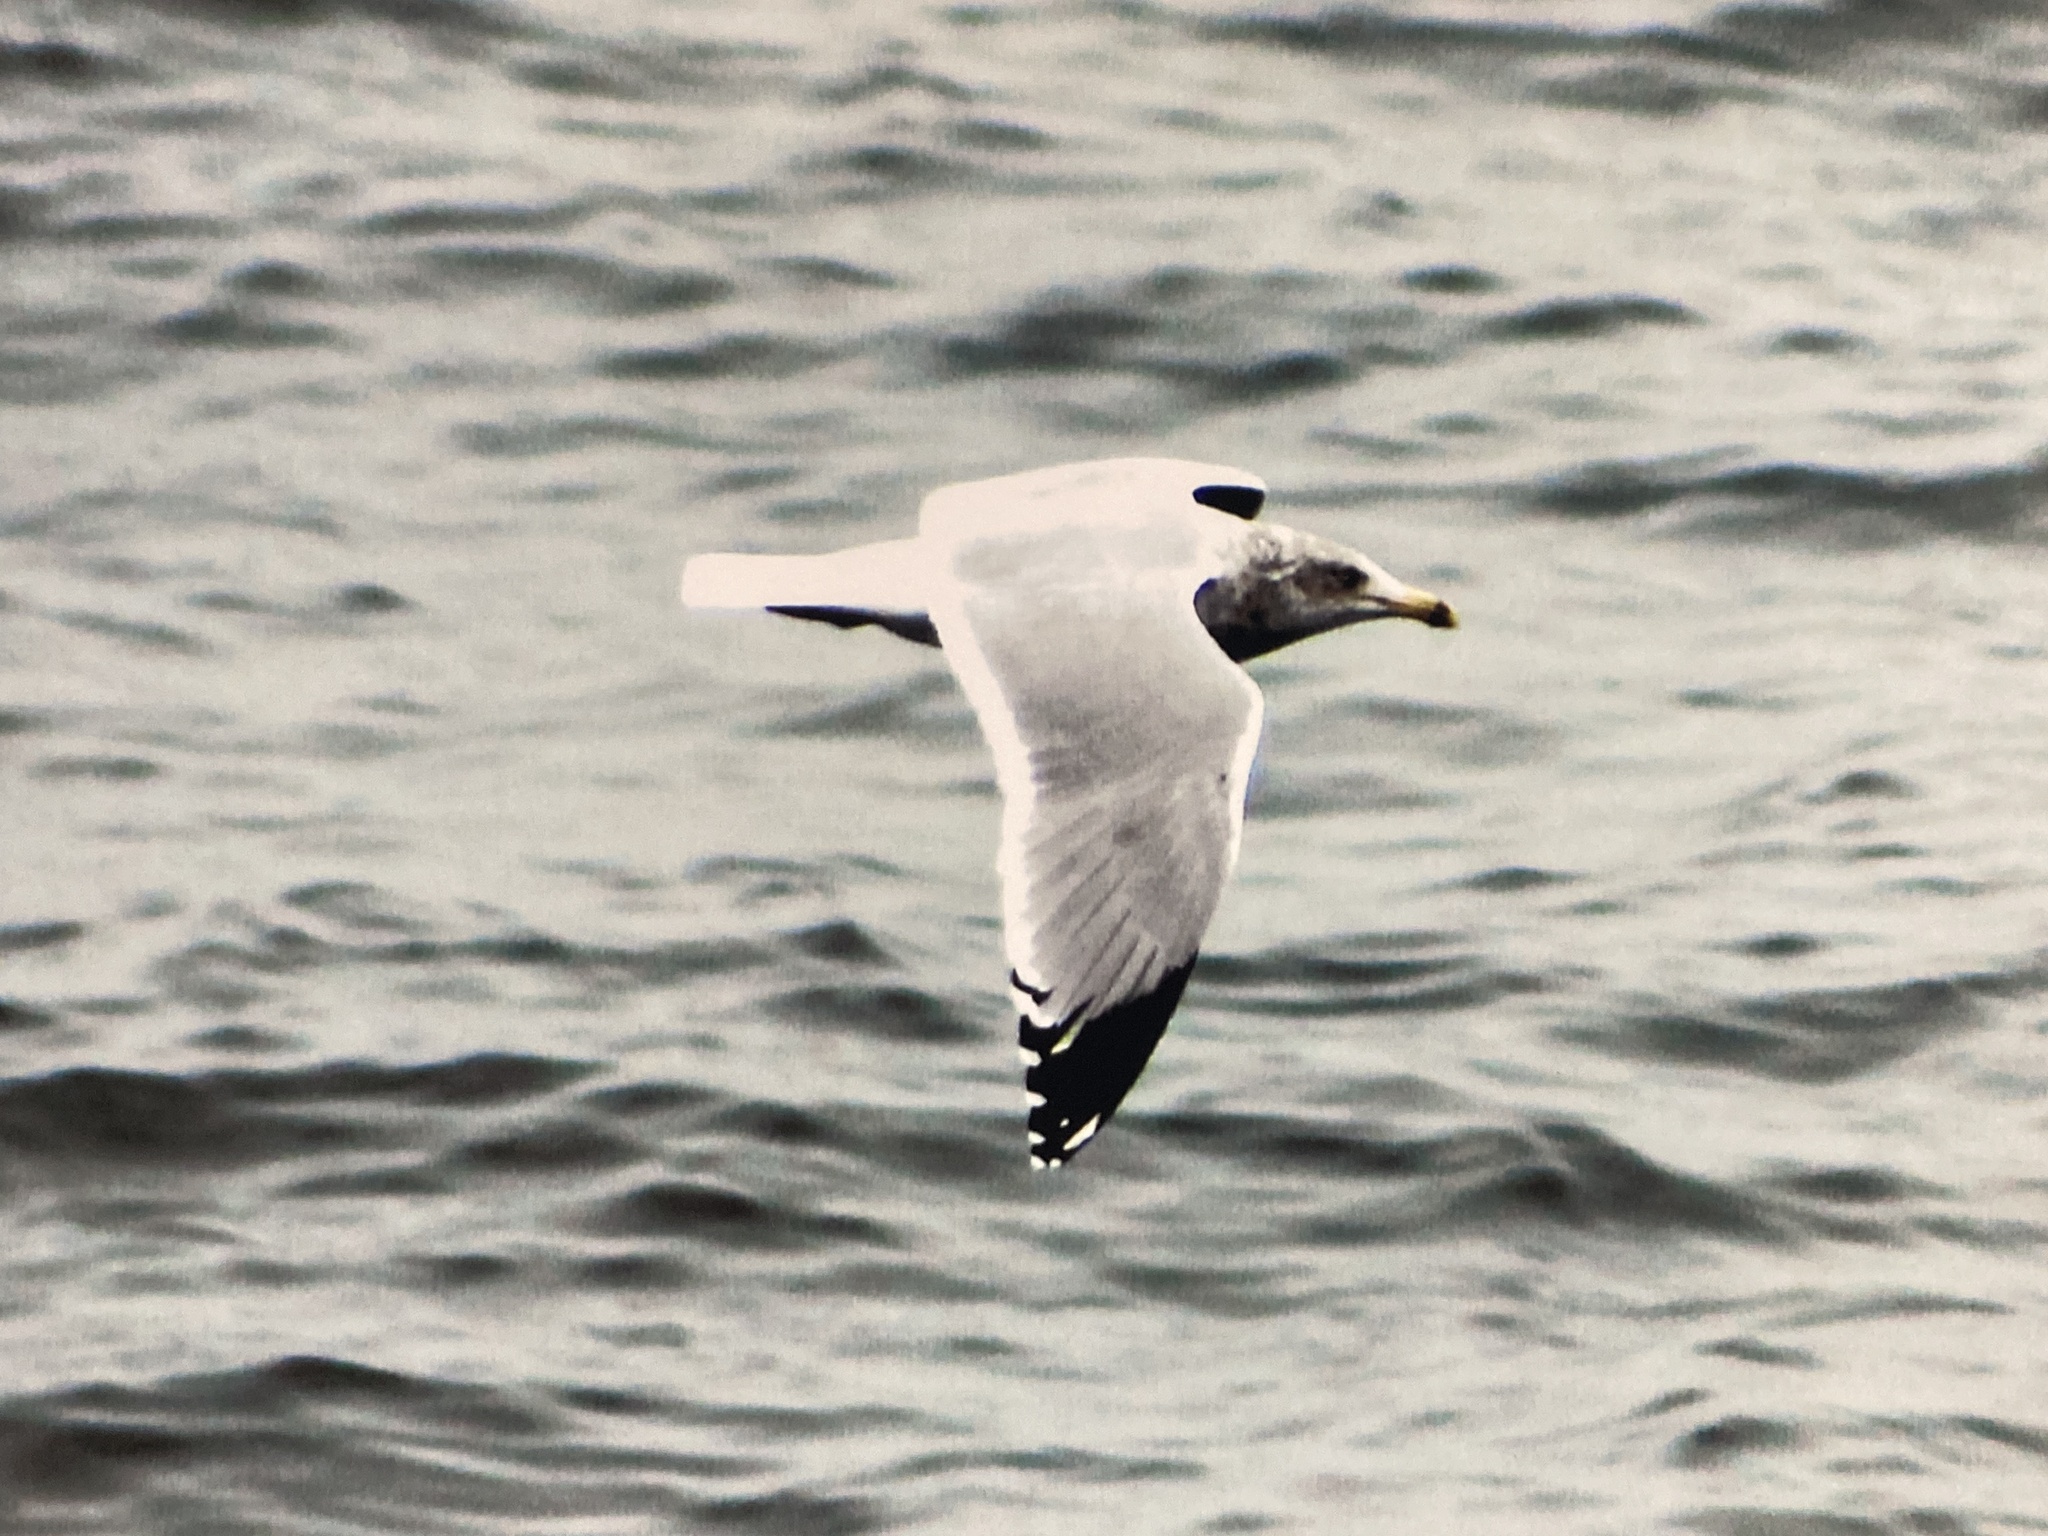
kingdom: Animalia
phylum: Chordata
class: Aves
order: Charadriiformes
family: Laridae
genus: Larus
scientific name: Larus smithsonianus
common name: American herring gull
